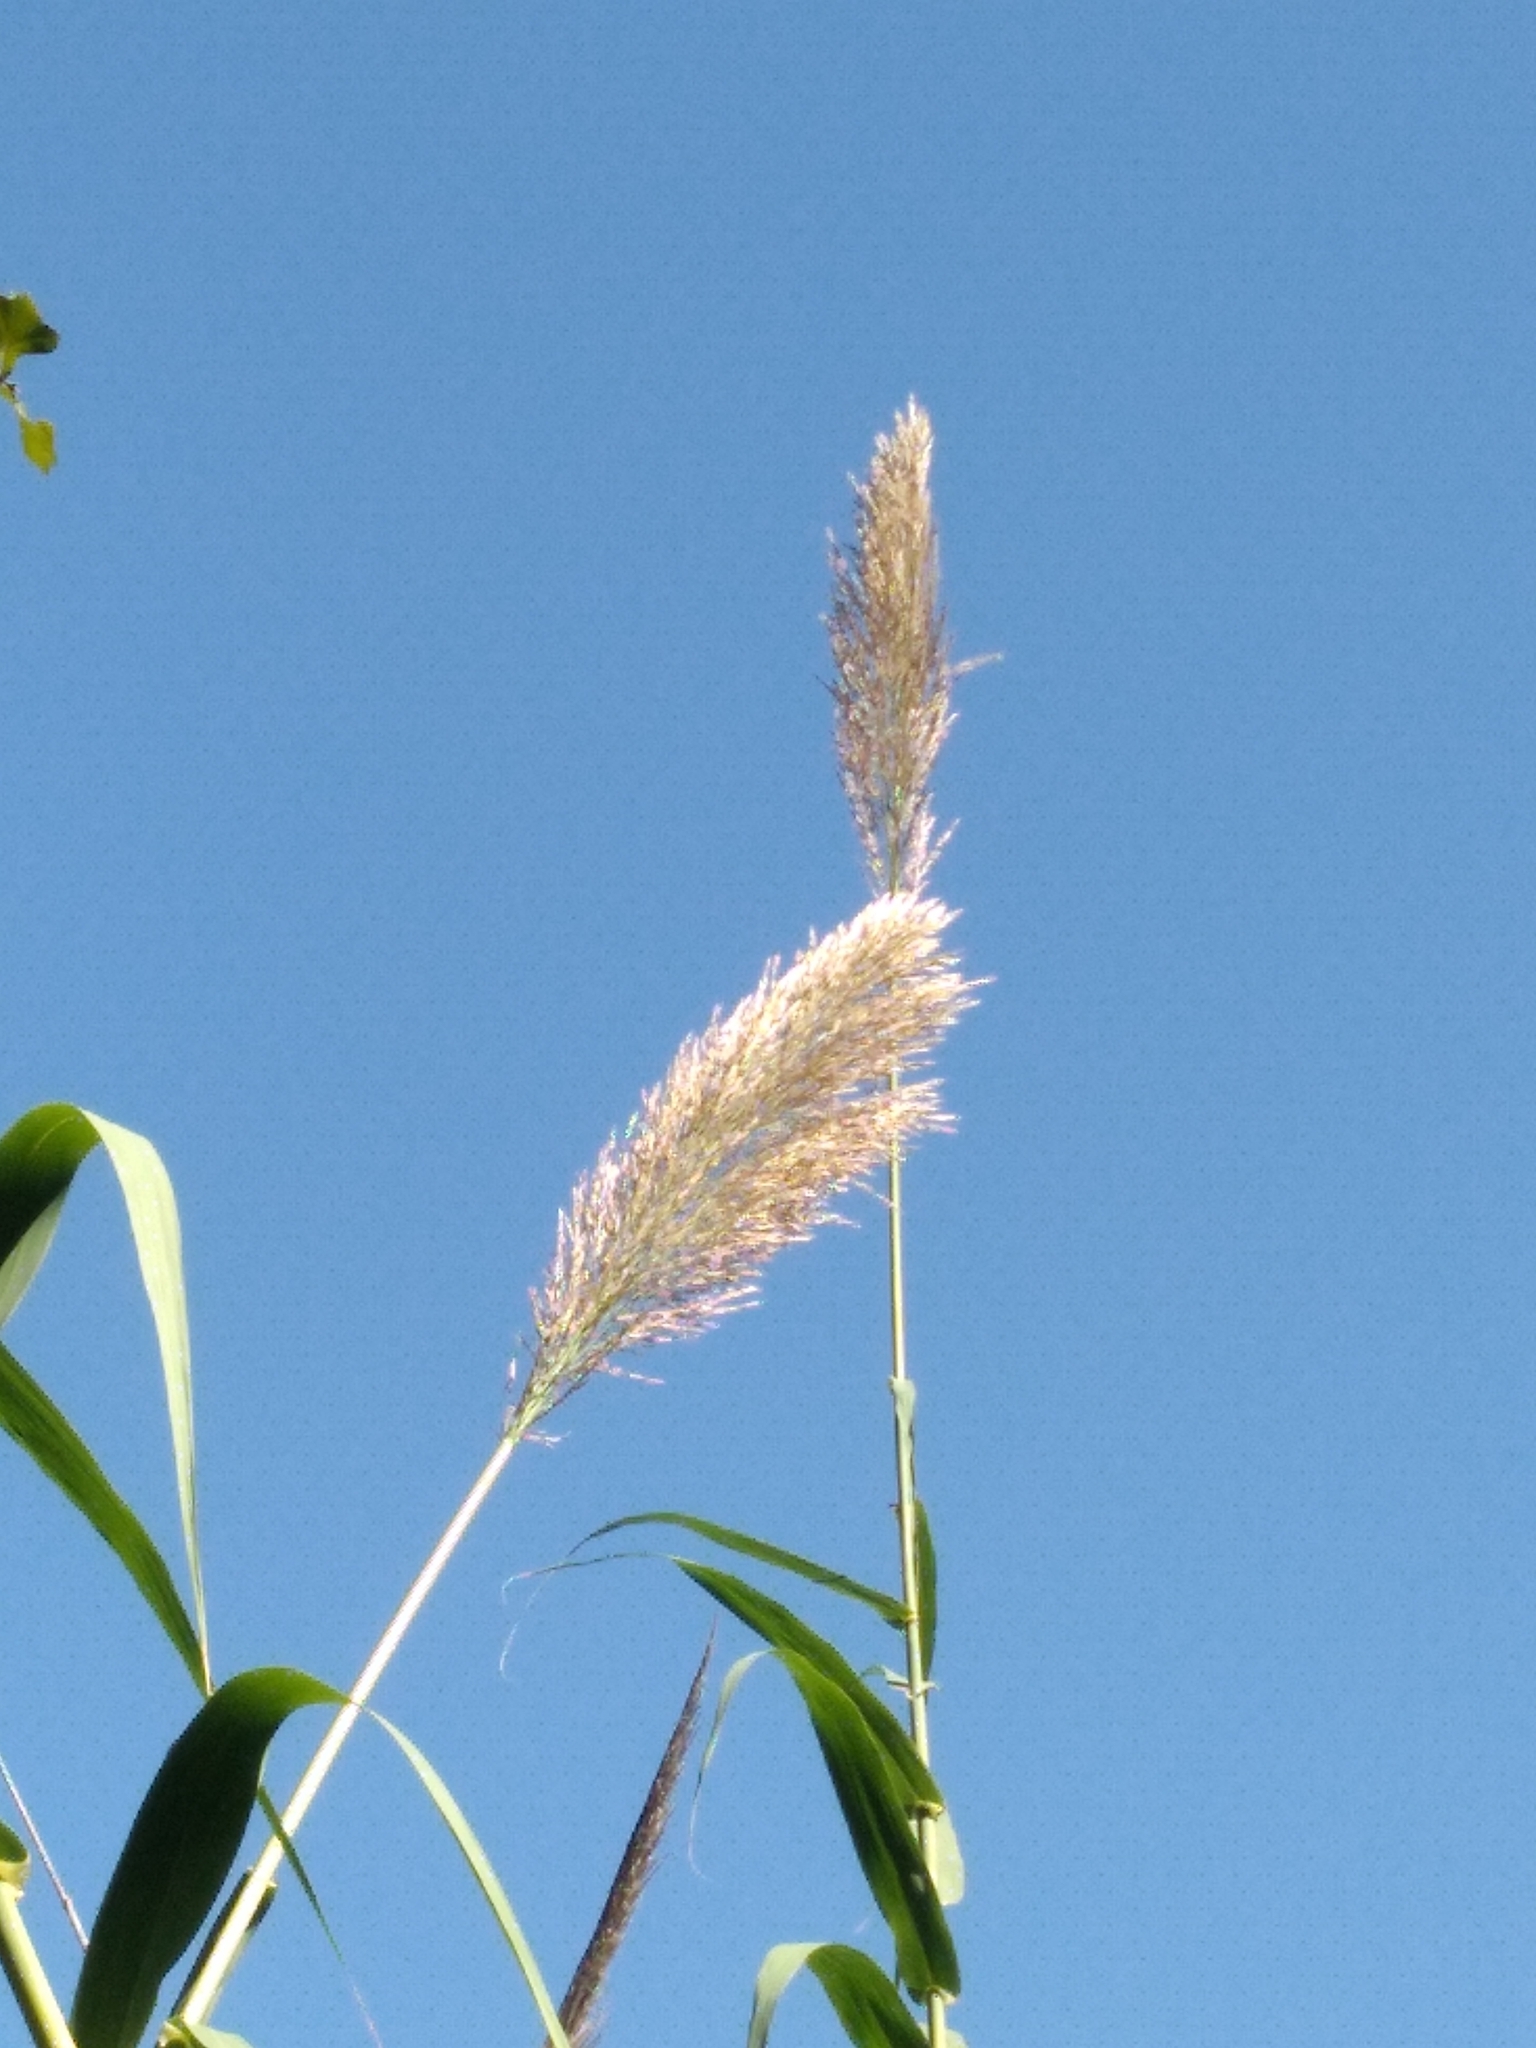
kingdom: Plantae
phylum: Tracheophyta
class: Liliopsida
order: Poales
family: Poaceae
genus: Arundo
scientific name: Arundo donax
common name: Giant reed
